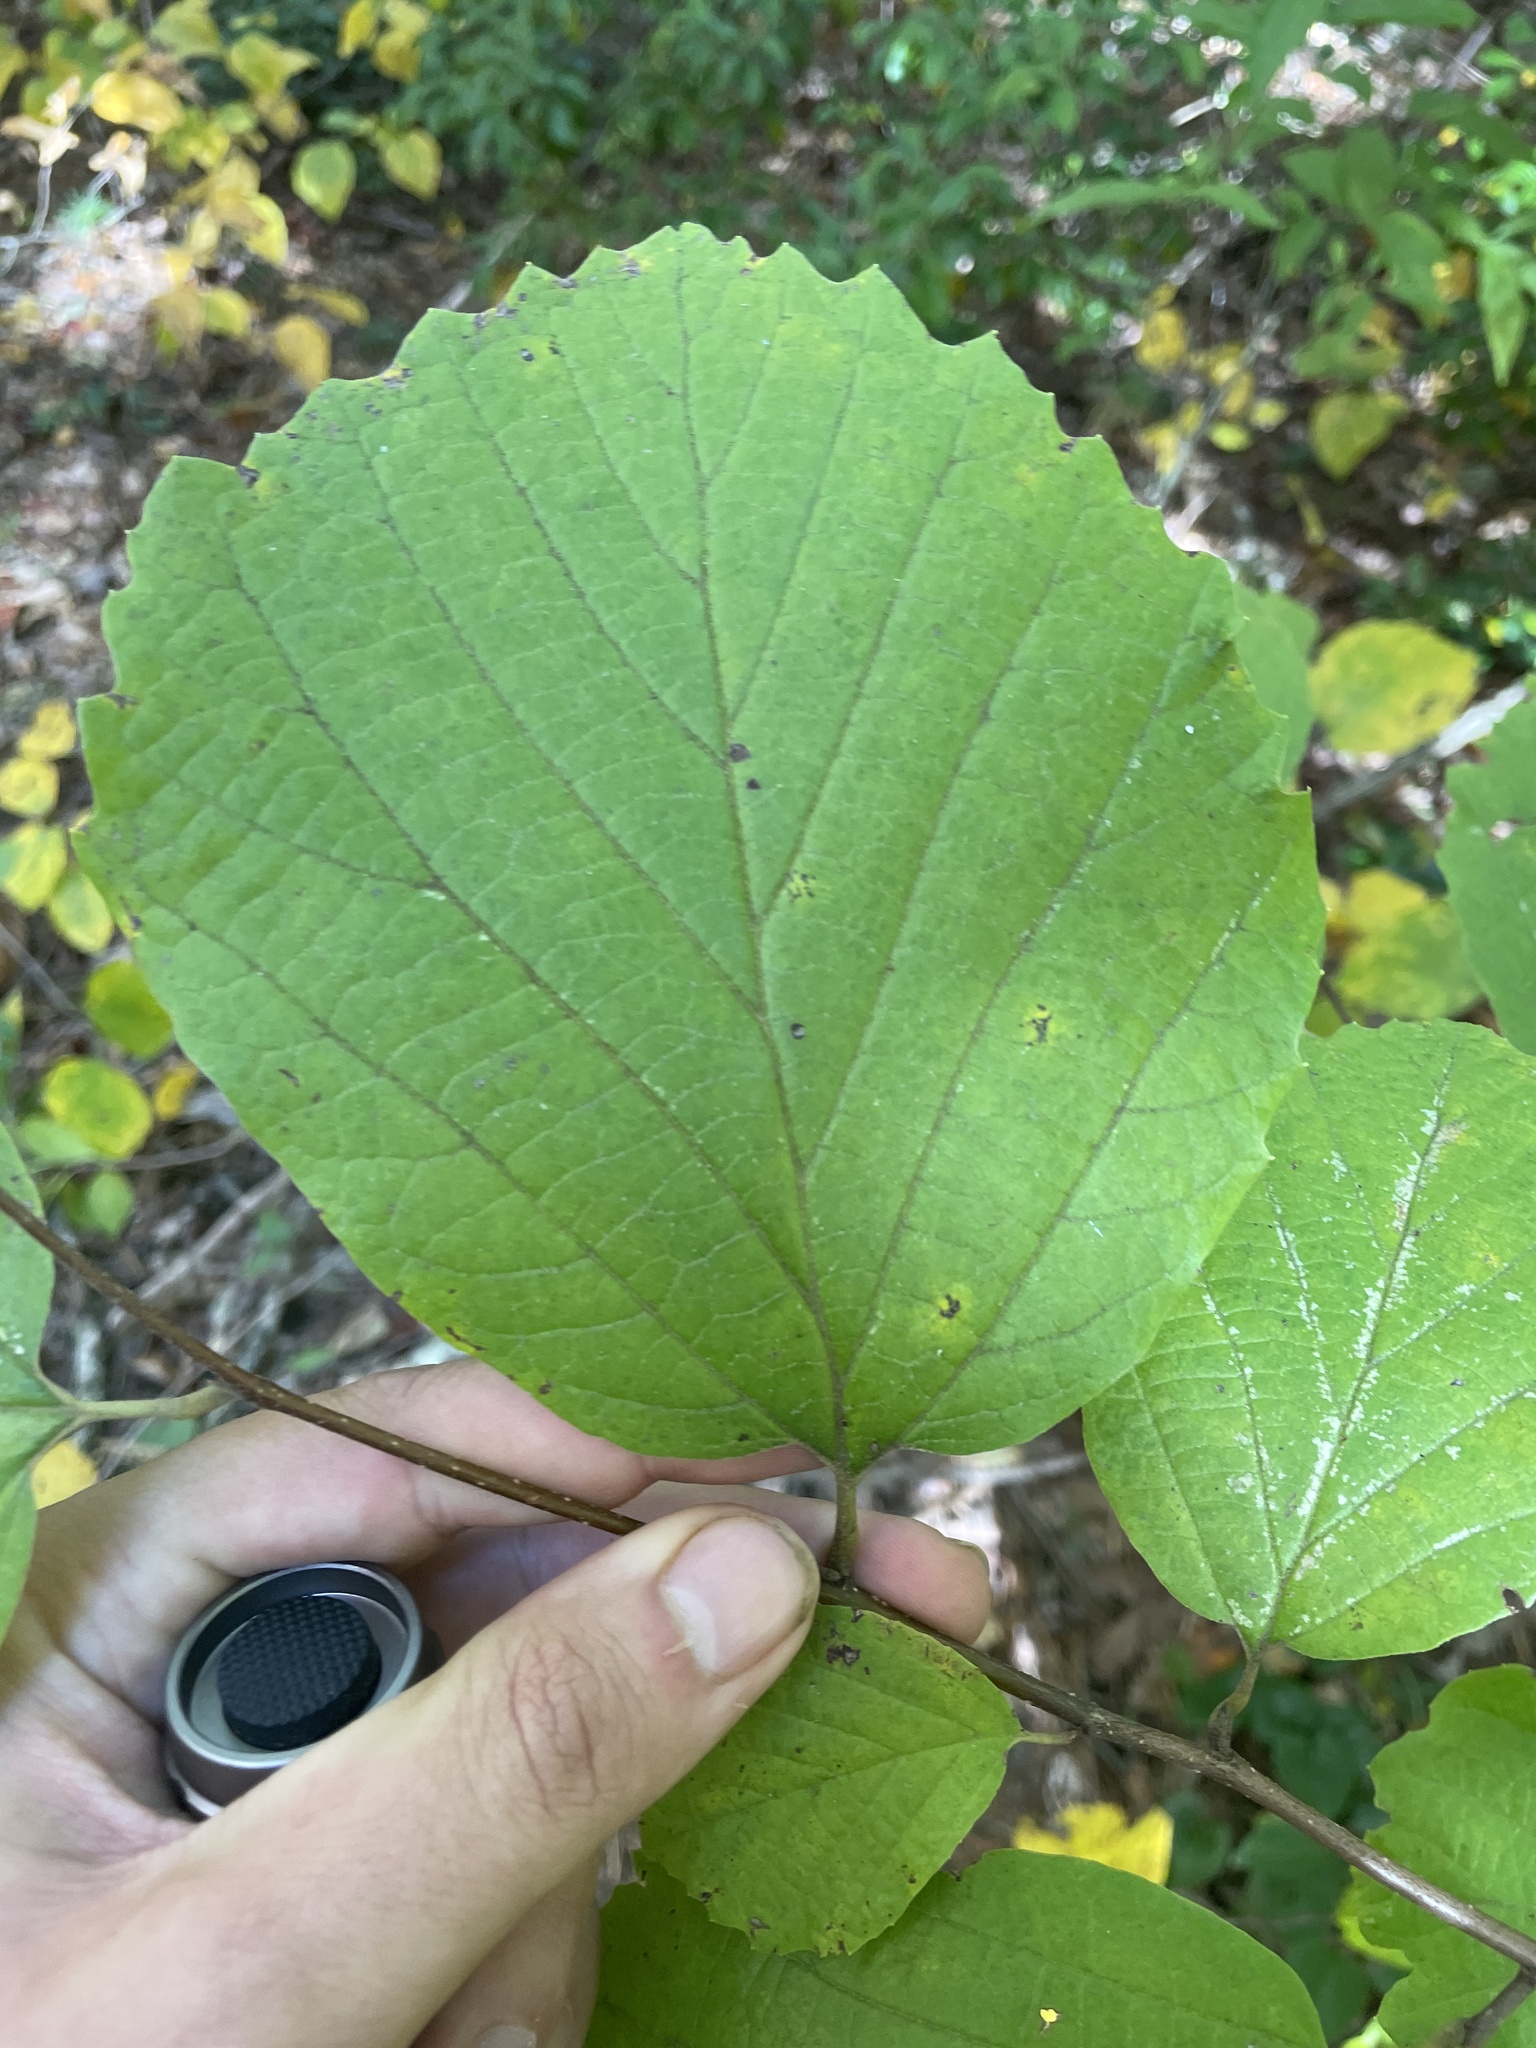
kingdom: Plantae
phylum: Tracheophyta
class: Magnoliopsida
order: Saxifragales
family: Hamamelidaceae
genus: Fothergilla
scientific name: Fothergilla latifolia
